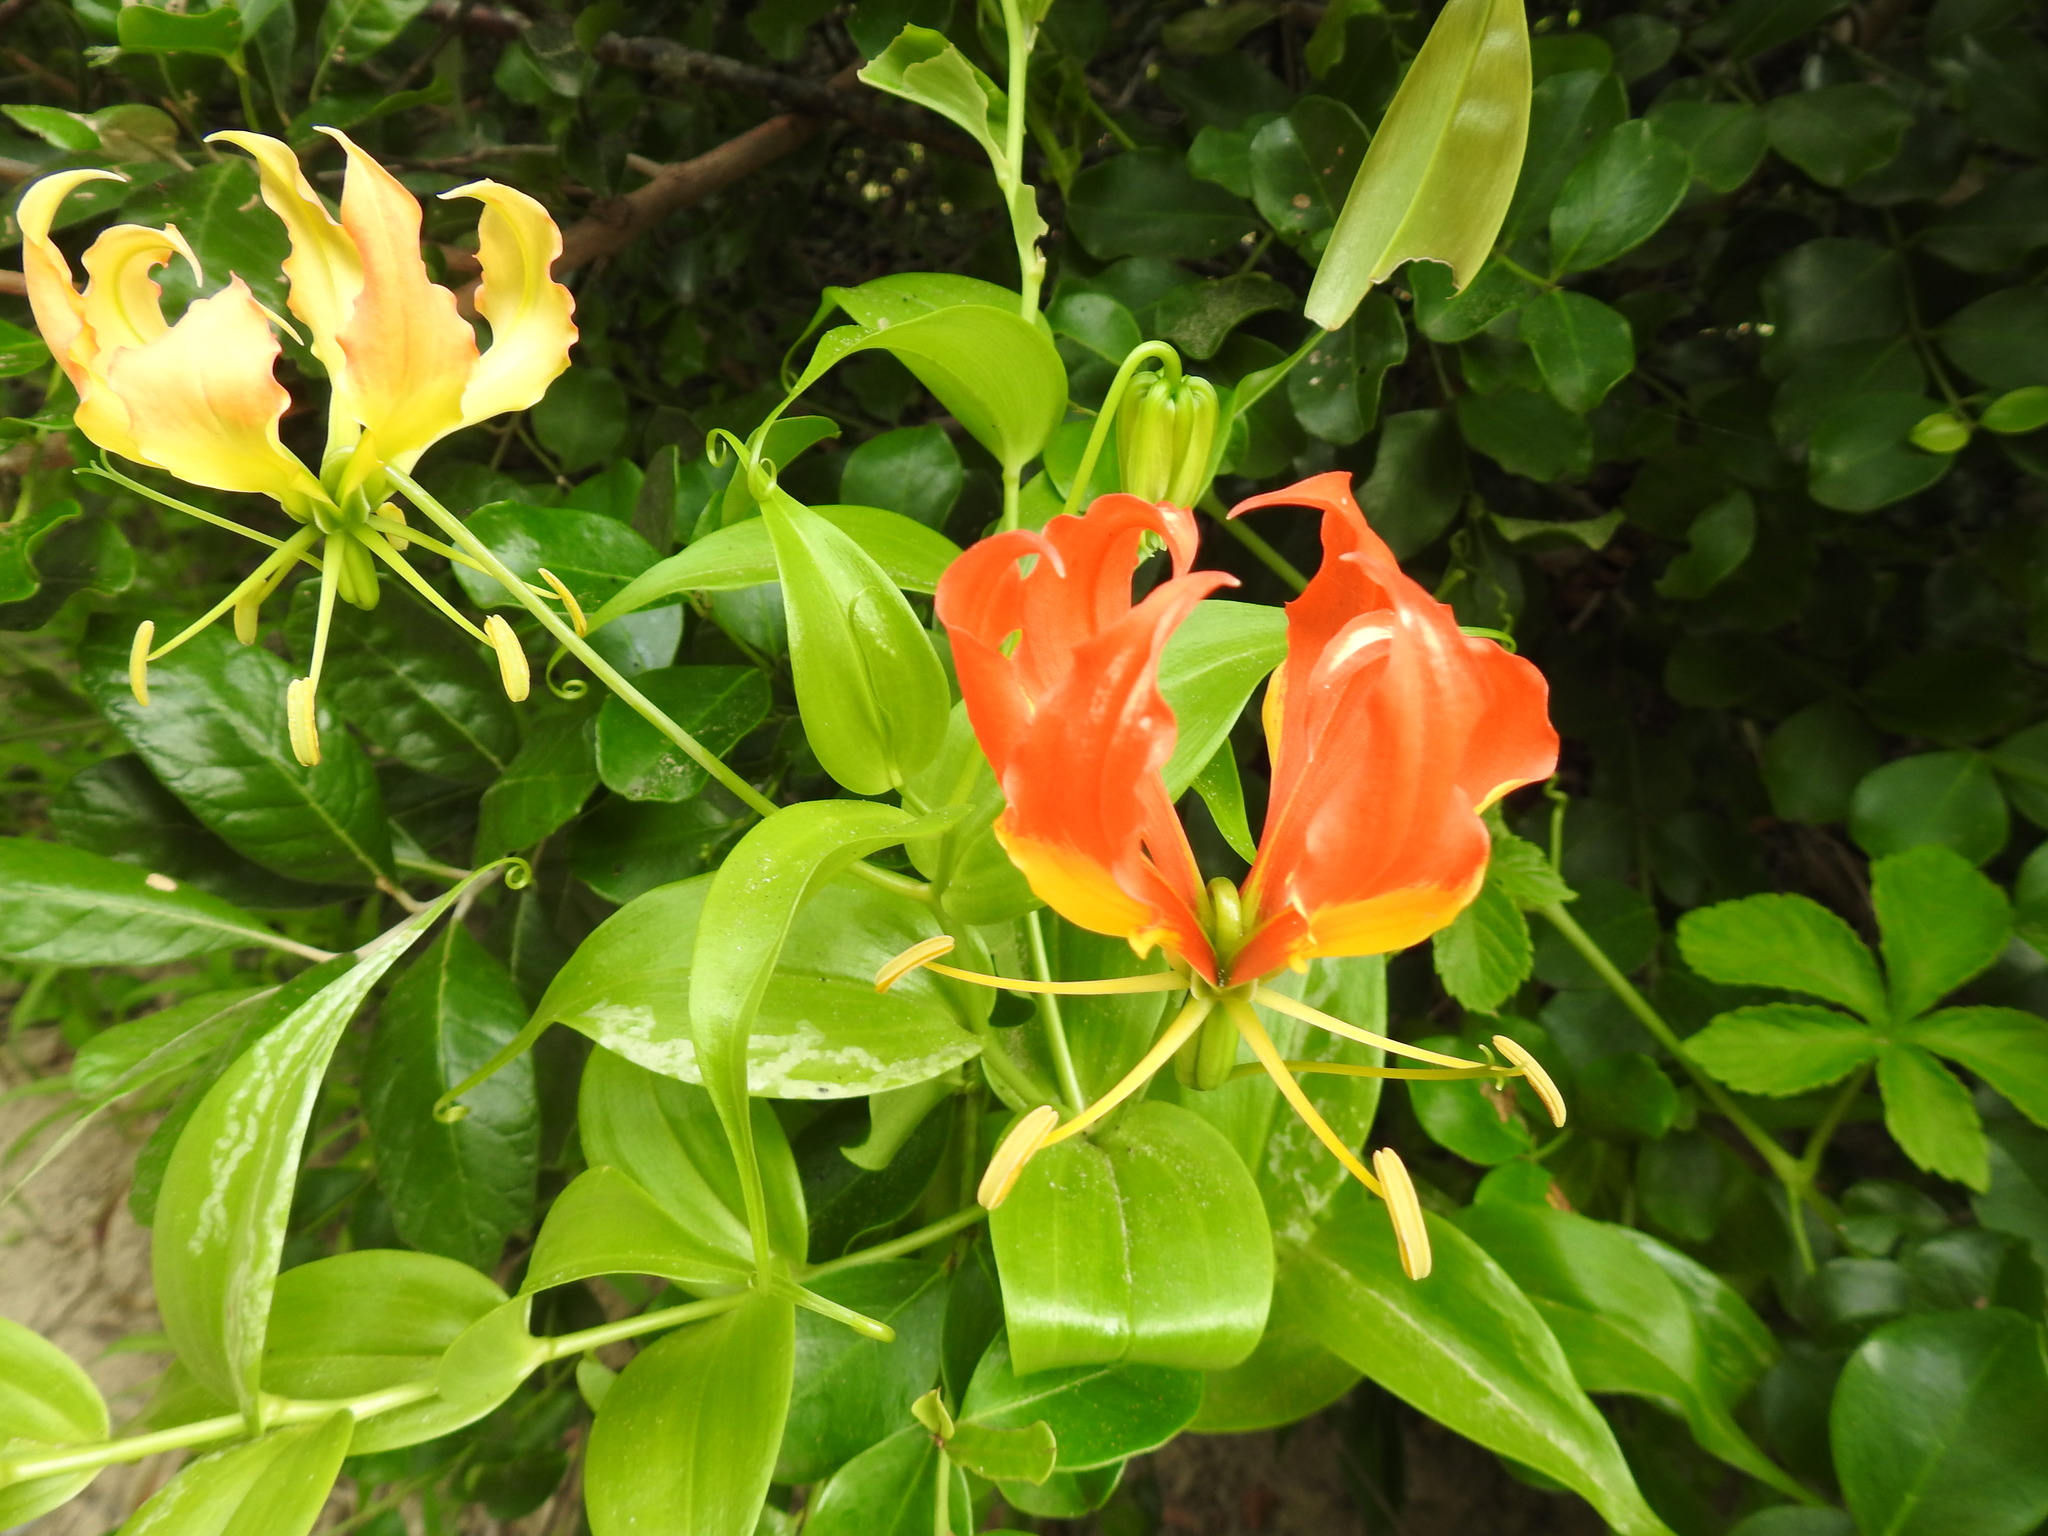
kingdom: Plantae
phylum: Tracheophyta
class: Liliopsida
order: Liliales
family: Colchicaceae
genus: Gloriosa
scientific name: Gloriosa superba
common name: Flame lily
